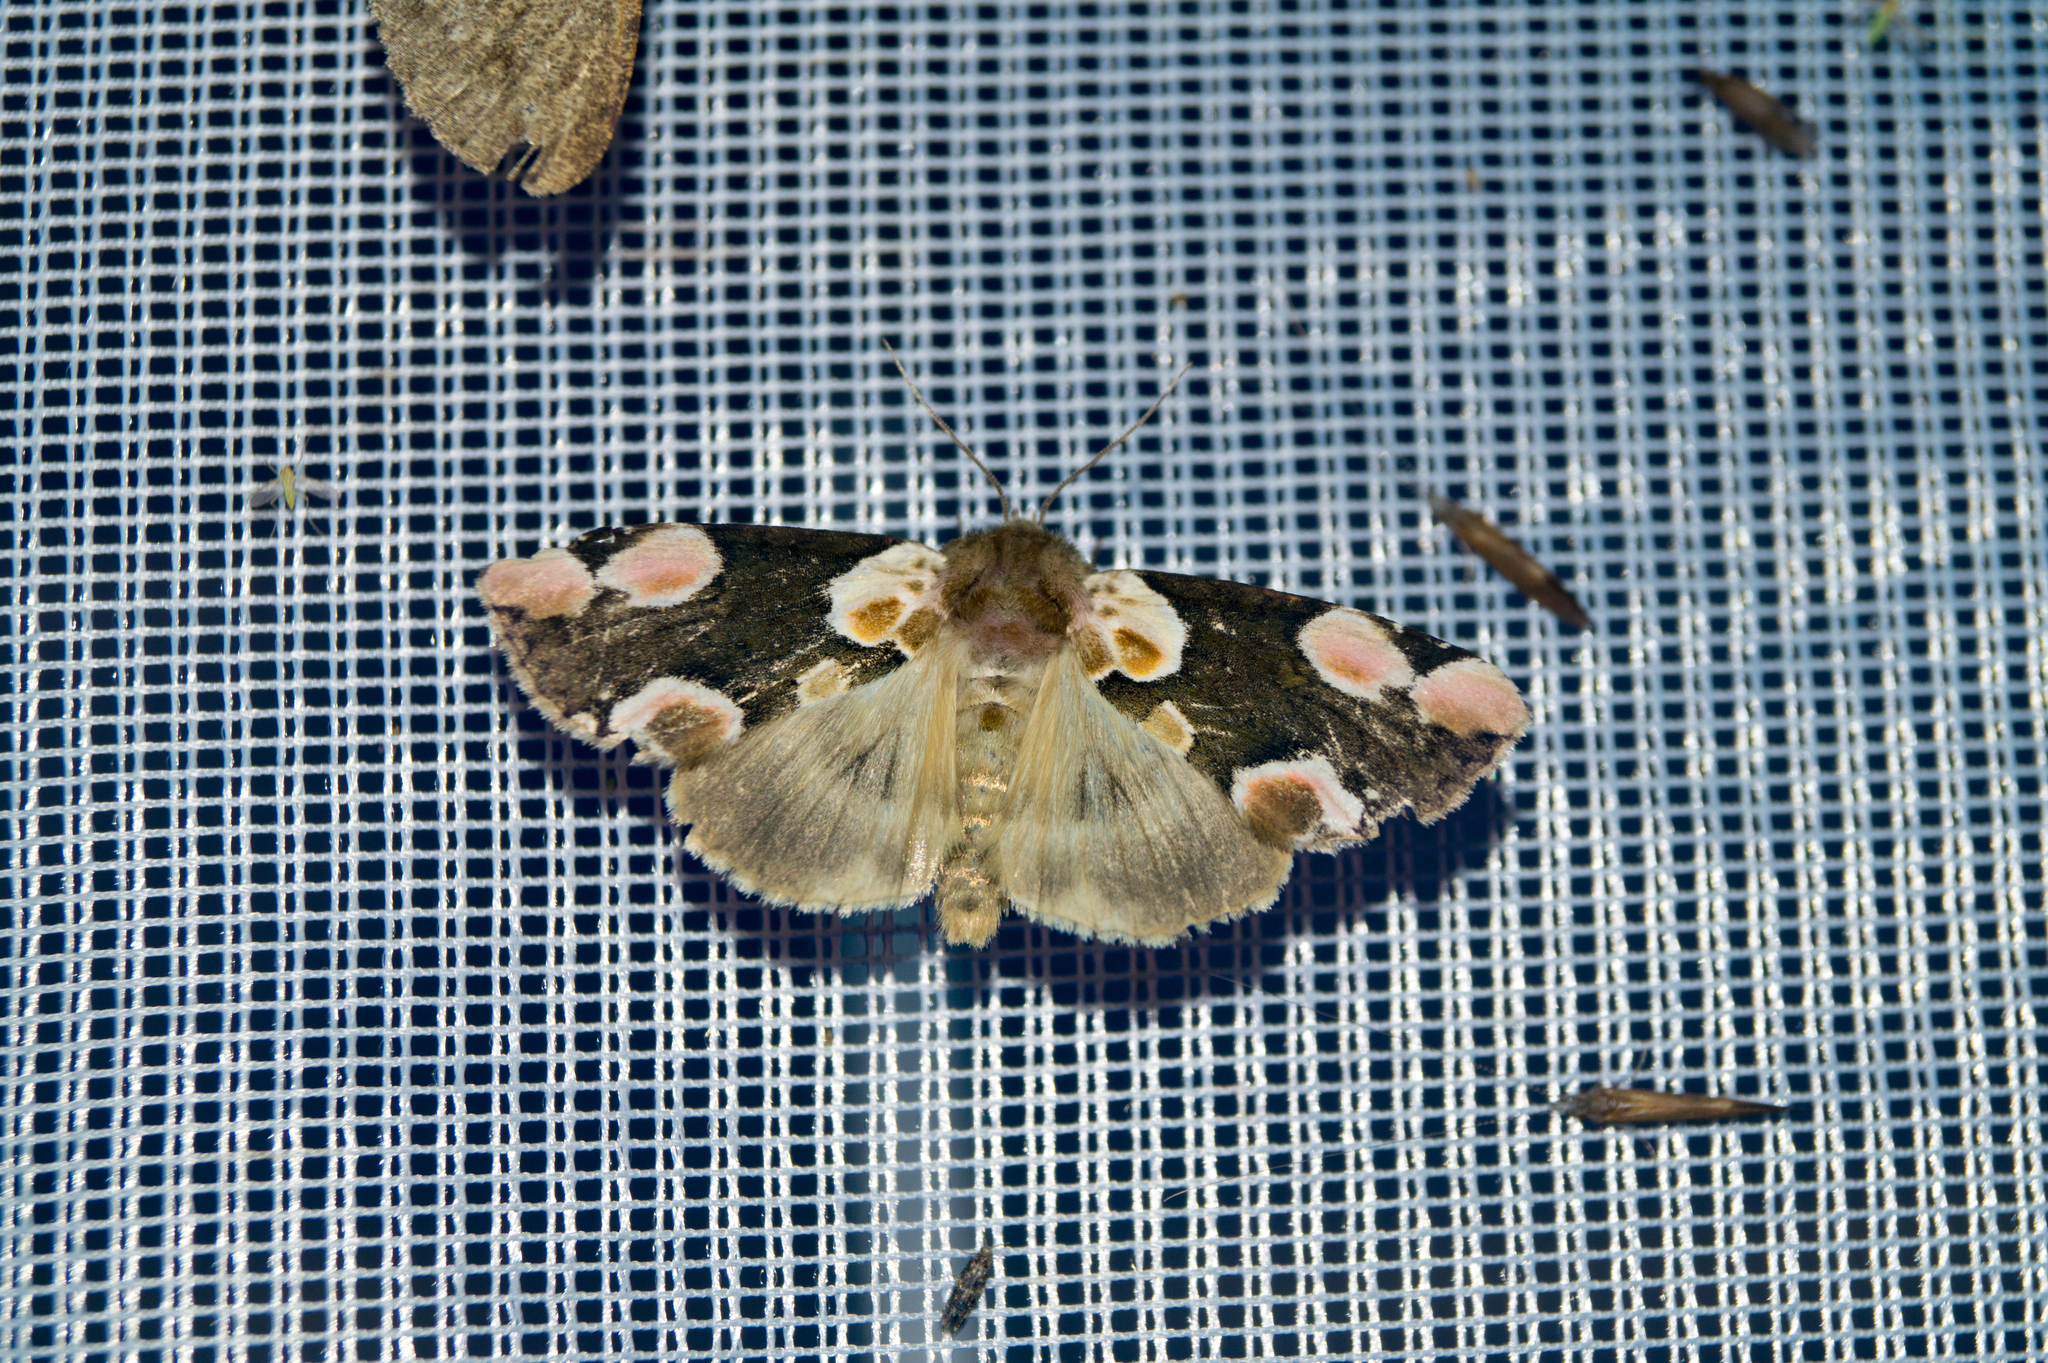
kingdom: Animalia
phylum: Arthropoda
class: Insecta
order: Lepidoptera
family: Drepanidae
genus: Thyatira
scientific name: Thyatira batis
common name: Peach blossom
